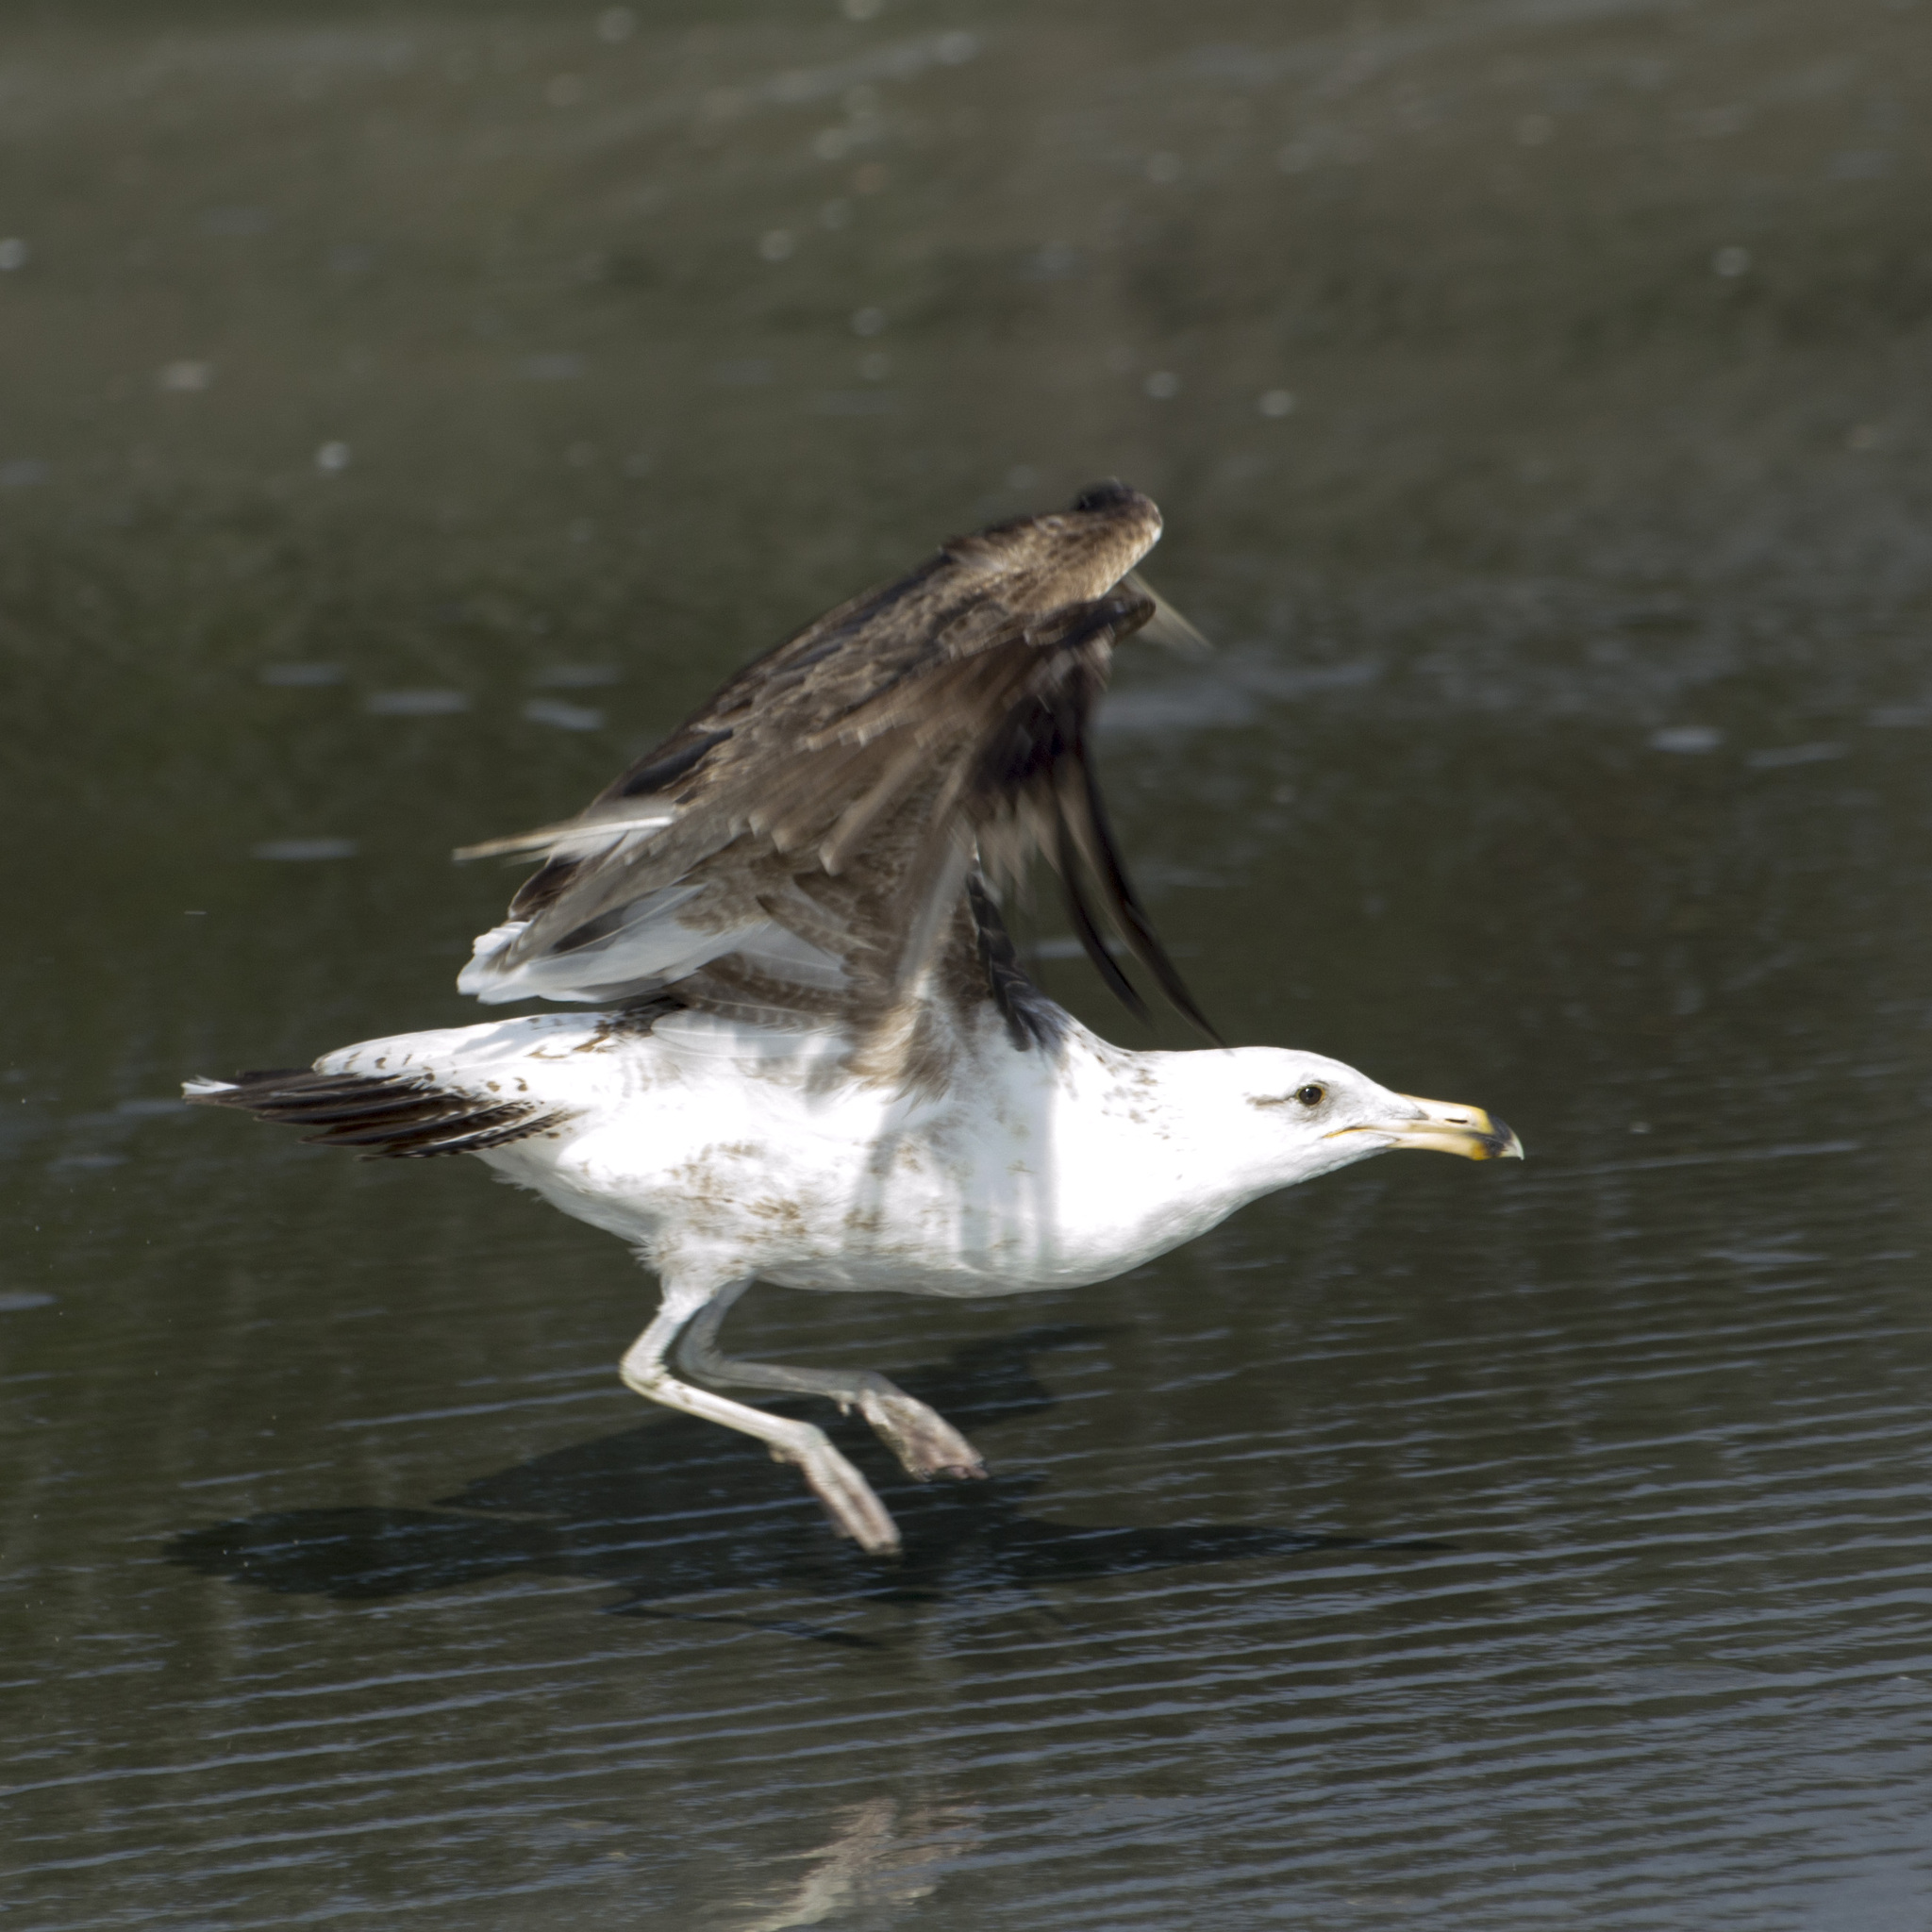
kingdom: Animalia
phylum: Chordata
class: Aves
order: Charadriiformes
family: Laridae
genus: Larus
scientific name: Larus dominicanus
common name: Kelp gull
